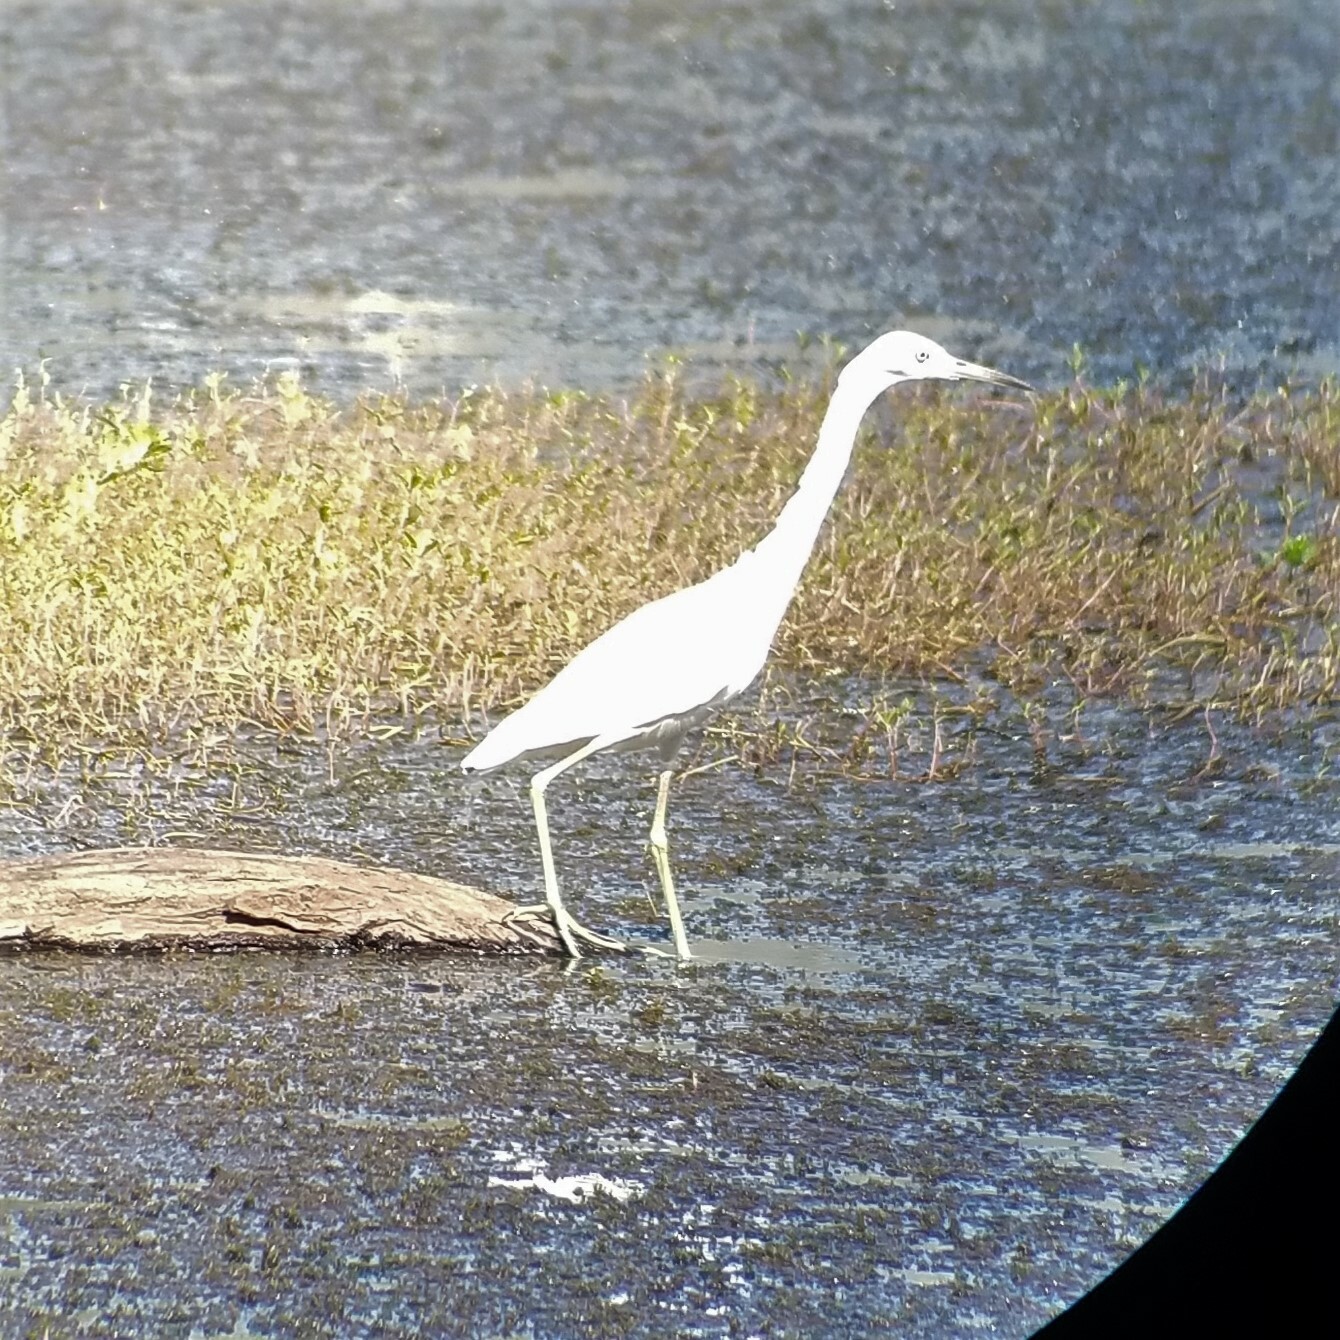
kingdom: Animalia
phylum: Chordata
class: Aves
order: Pelecaniformes
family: Ardeidae
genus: Egretta
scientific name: Egretta caerulea
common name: Little blue heron
